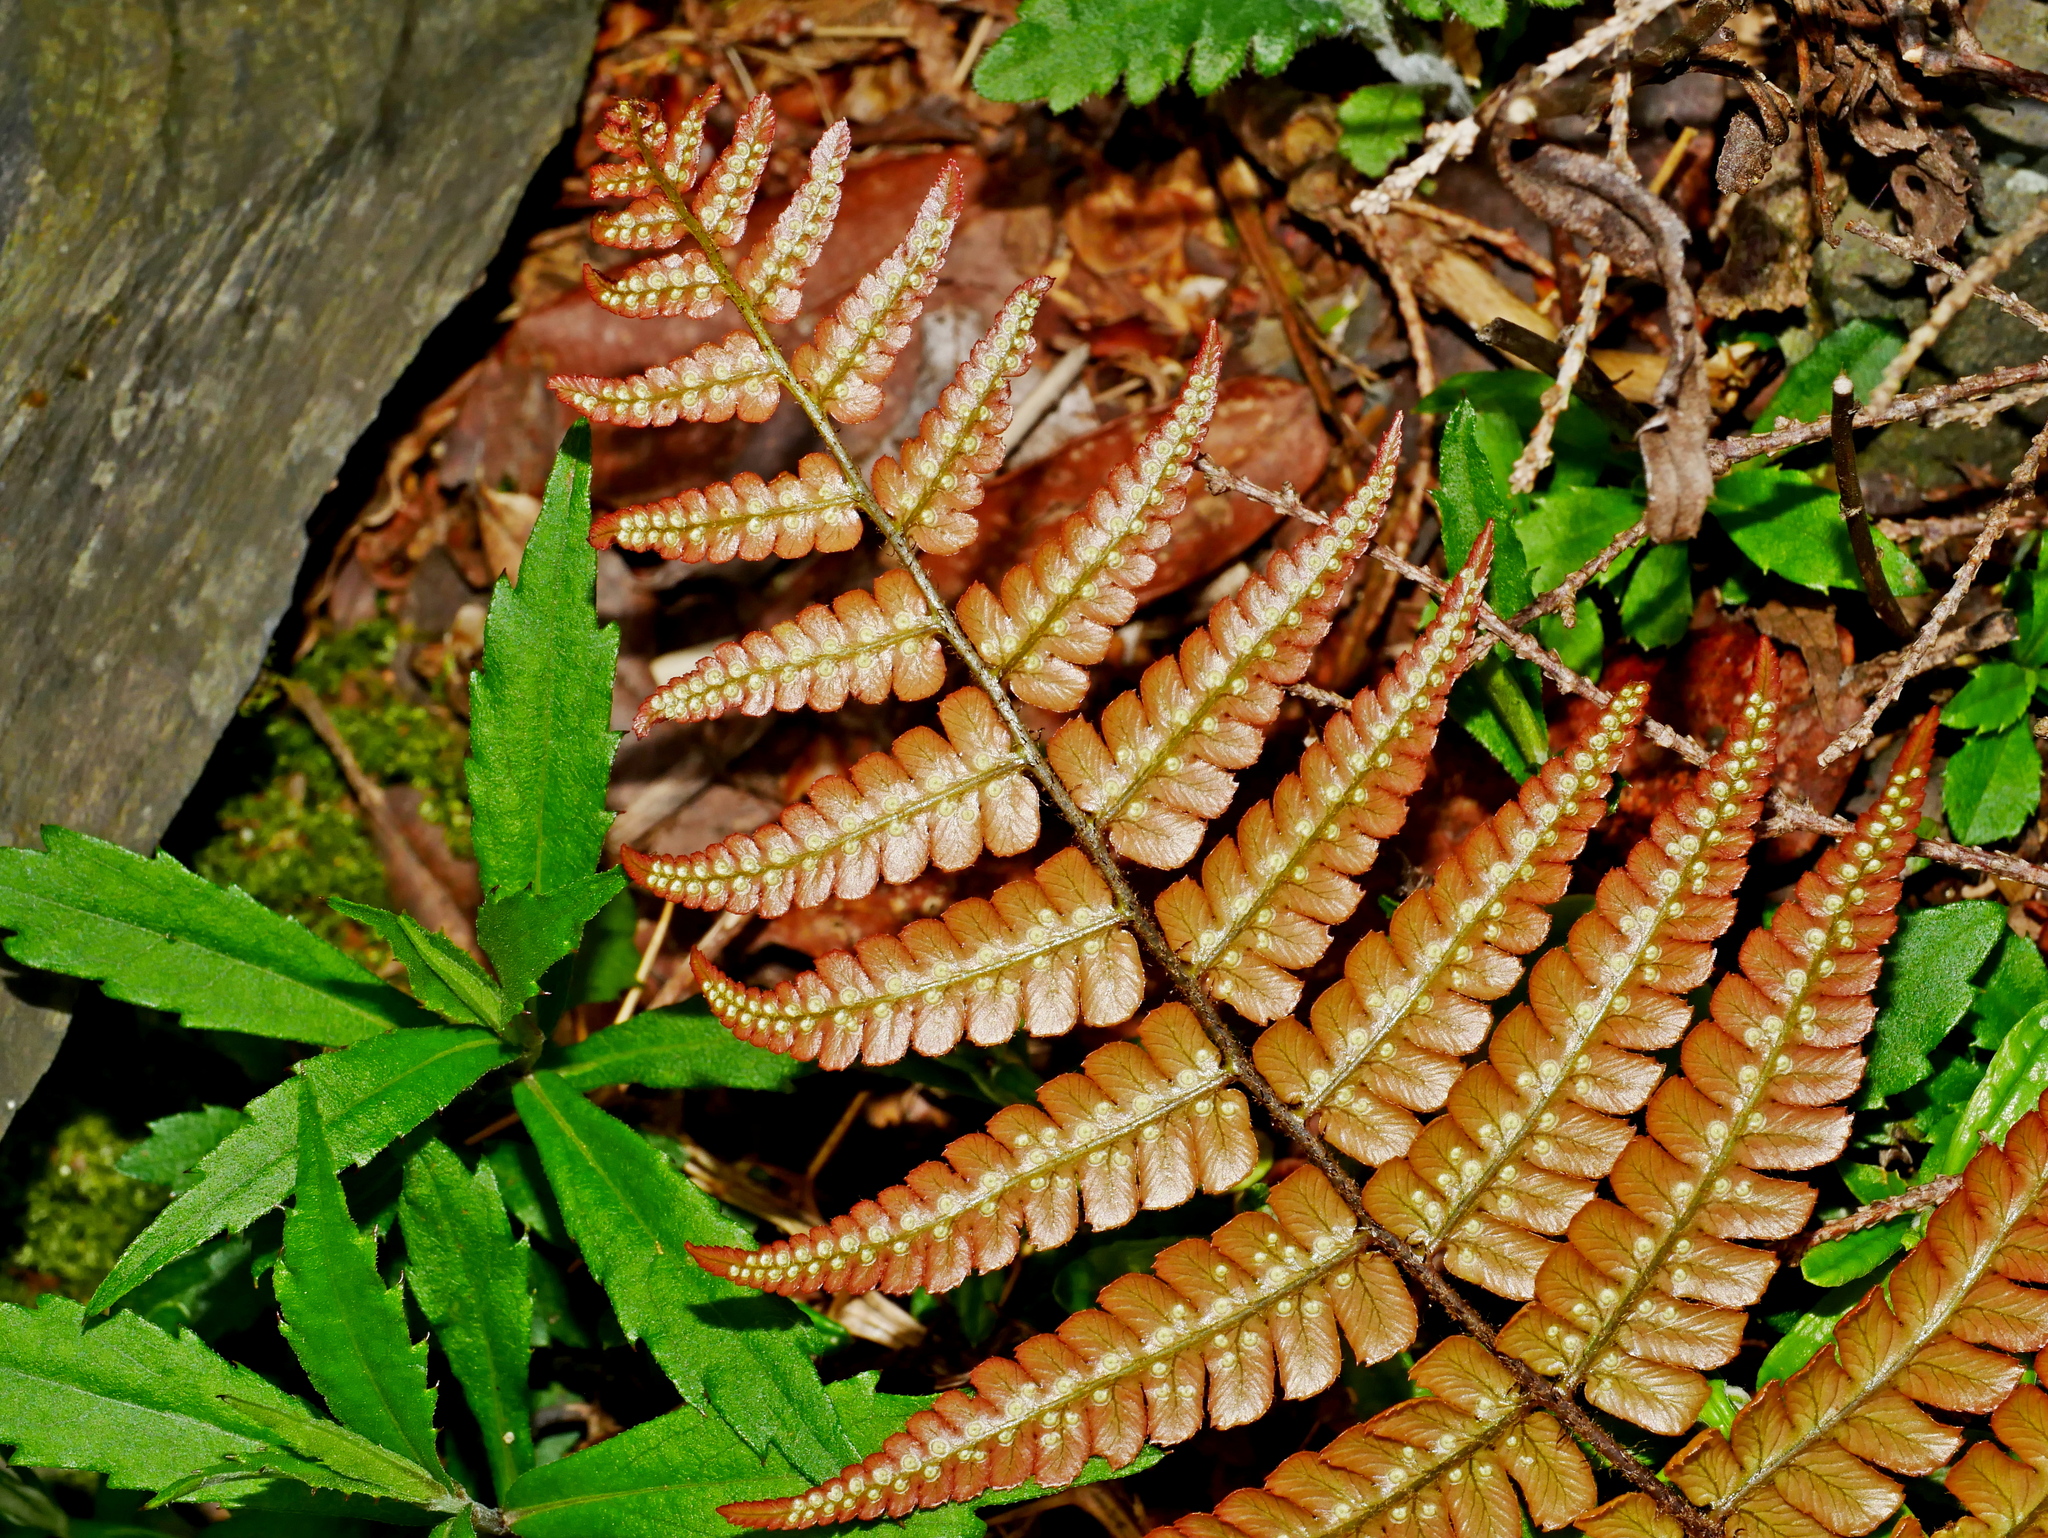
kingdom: Plantae
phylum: Tracheophyta
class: Polypodiopsida
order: Polypodiales
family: Dryopteridaceae
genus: Dryopteris
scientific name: Dryopteris lepidopoda
